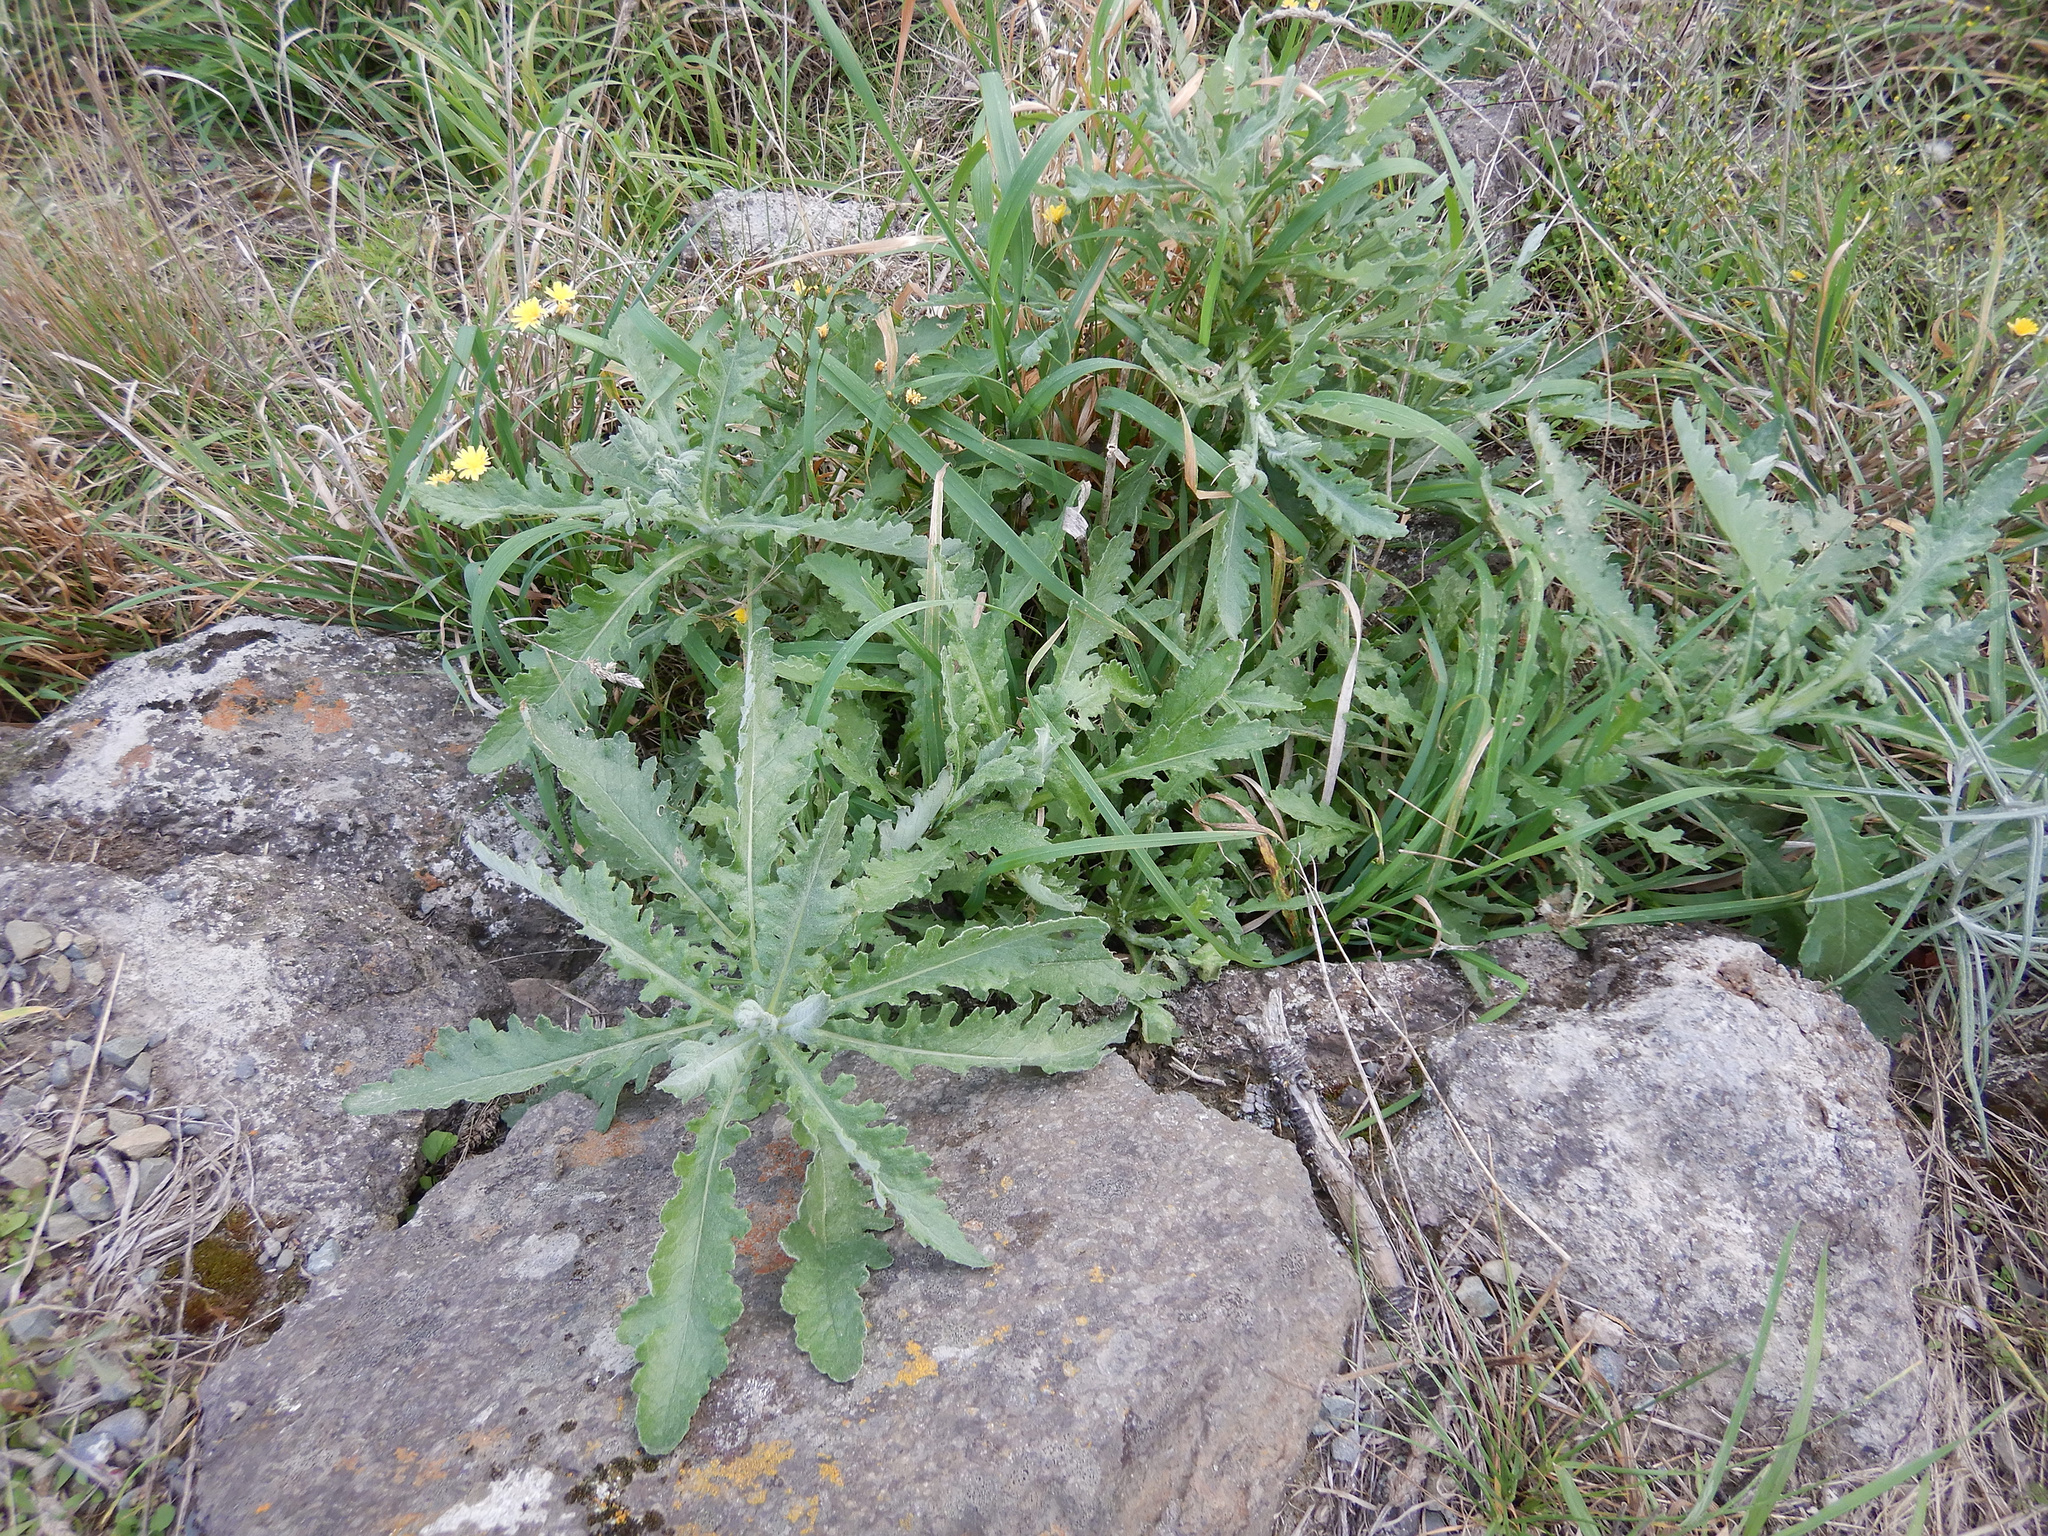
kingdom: Plantae
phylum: Tracheophyta
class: Magnoliopsida
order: Asterales
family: Asteraceae
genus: Senecio
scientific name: Senecio glomeratus
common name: Cutleaf burnweed
